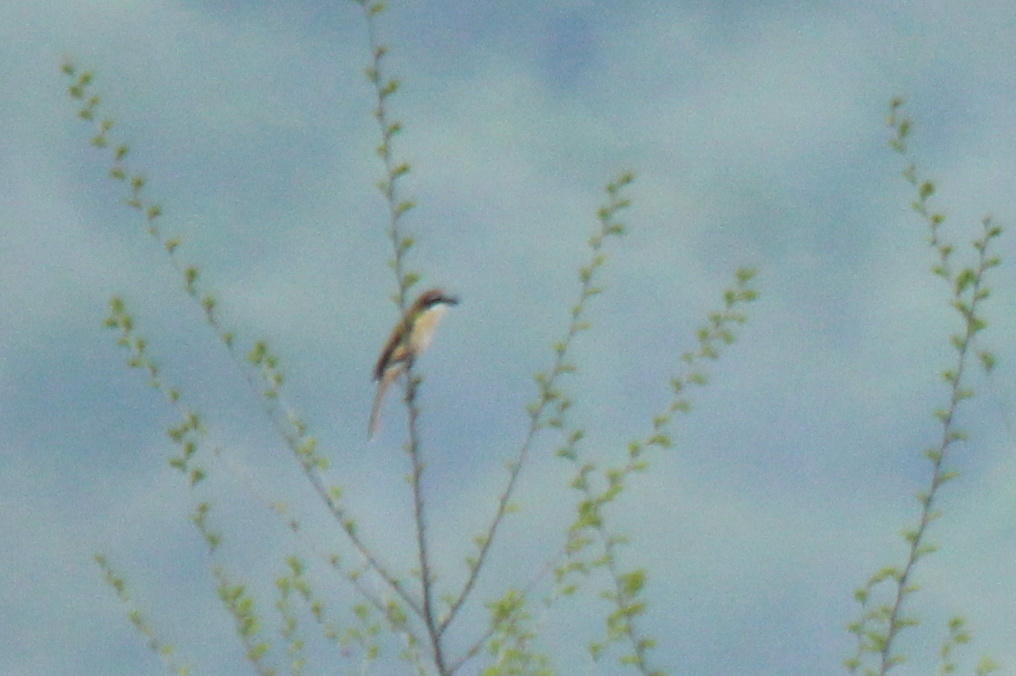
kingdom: Animalia
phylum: Chordata
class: Aves
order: Passeriformes
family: Laniidae
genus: Lanius
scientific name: Lanius cristatus
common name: Brown shrike
